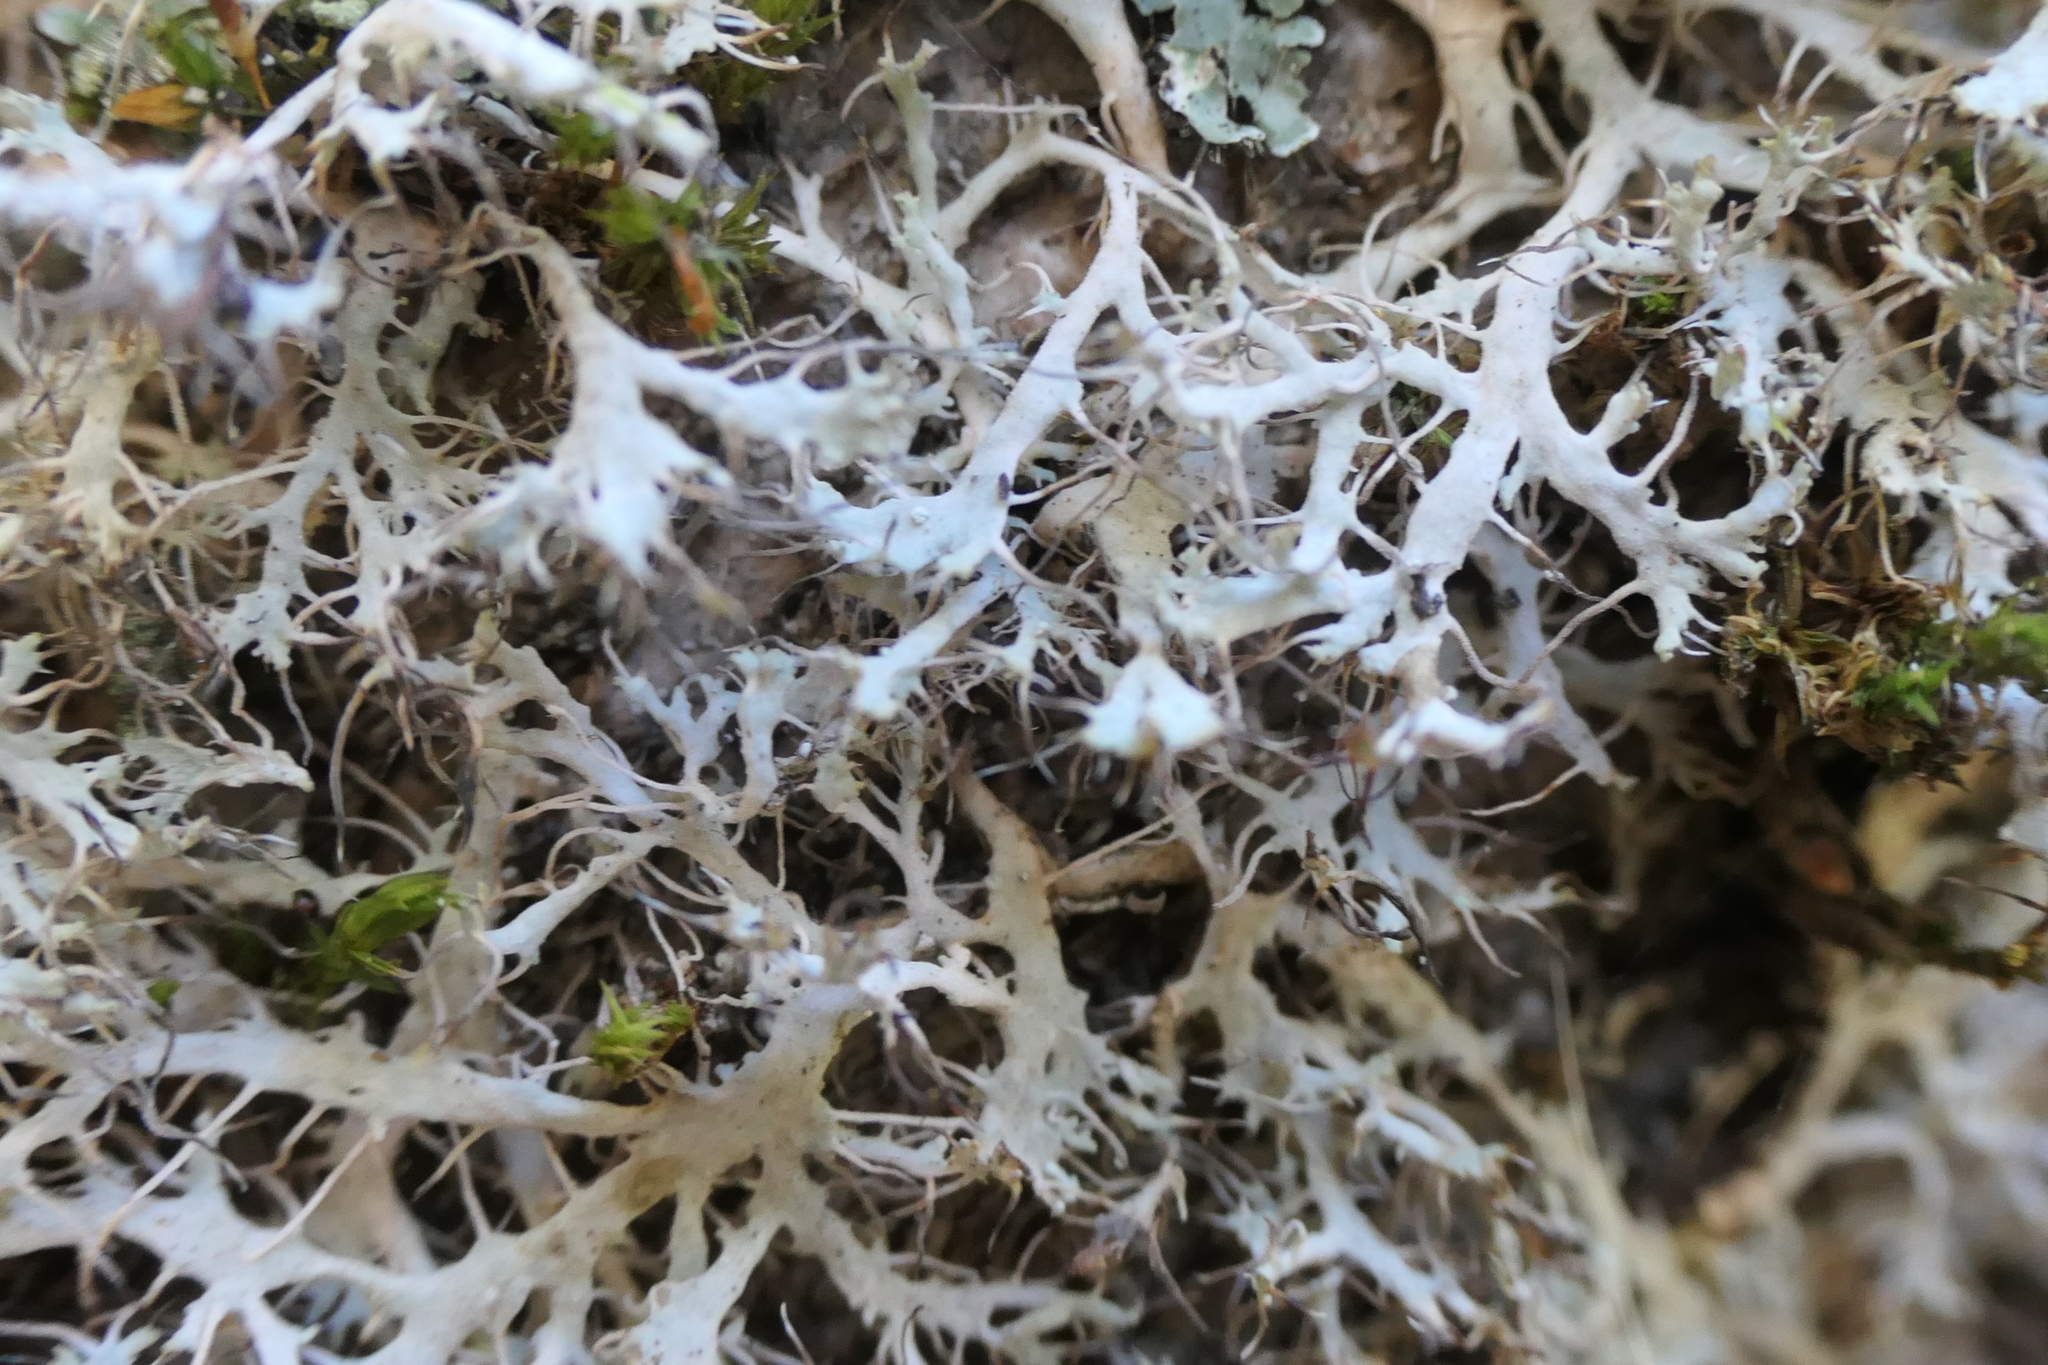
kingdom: Fungi
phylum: Ascomycota
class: Lecanoromycetes
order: Caliciales
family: Physciaceae
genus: Anaptychia
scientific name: Anaptychia ciliaris
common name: Great ciliated lichen
